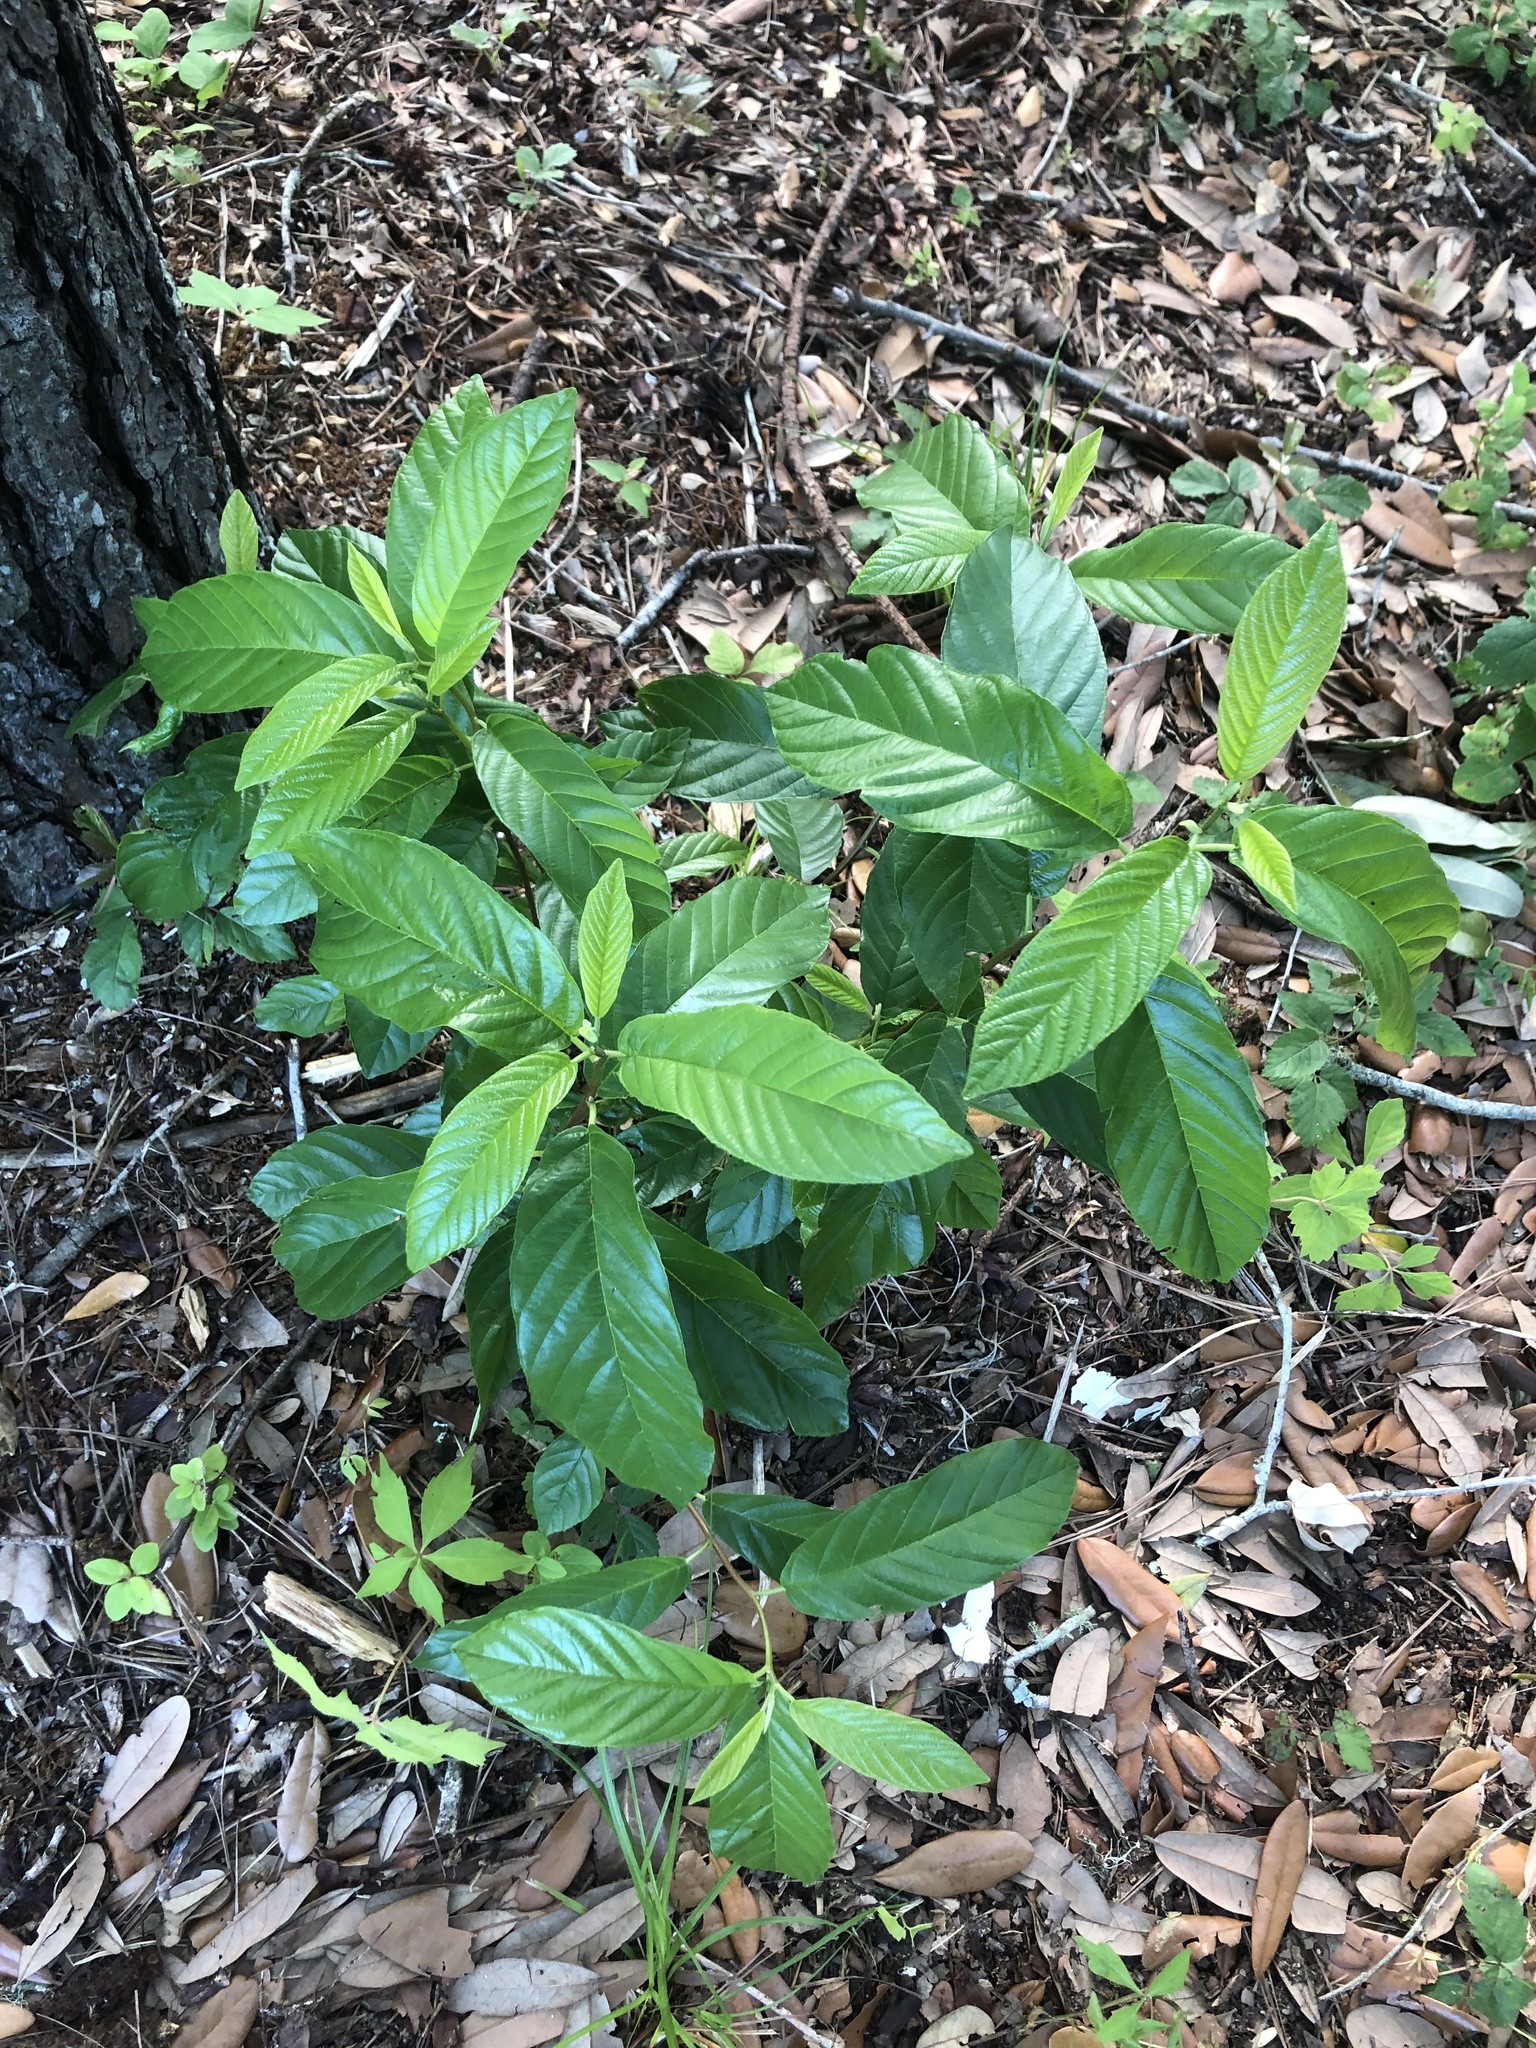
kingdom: Plantae
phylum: Tracheophyta
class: Magnoliopsida
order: Rosales
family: Rhamnaceae
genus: Frangula
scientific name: Frangula caroliniana
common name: Carolina buckthorn
